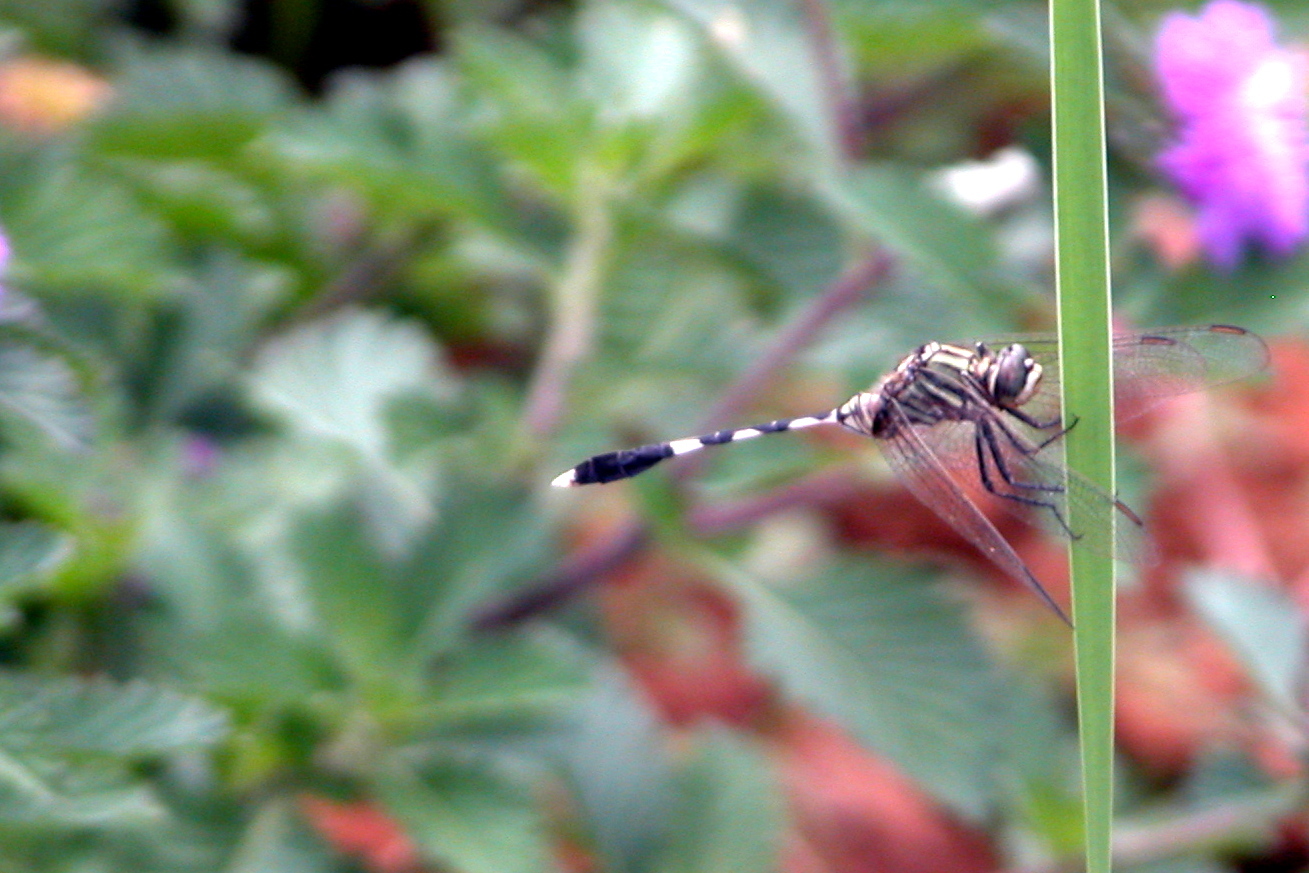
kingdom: Animalia
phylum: Arthropoda
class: Insecta
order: Odonata
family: Libellulidae
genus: Orthetrum
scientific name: Orthetrum sabina
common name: Slender skimmer
